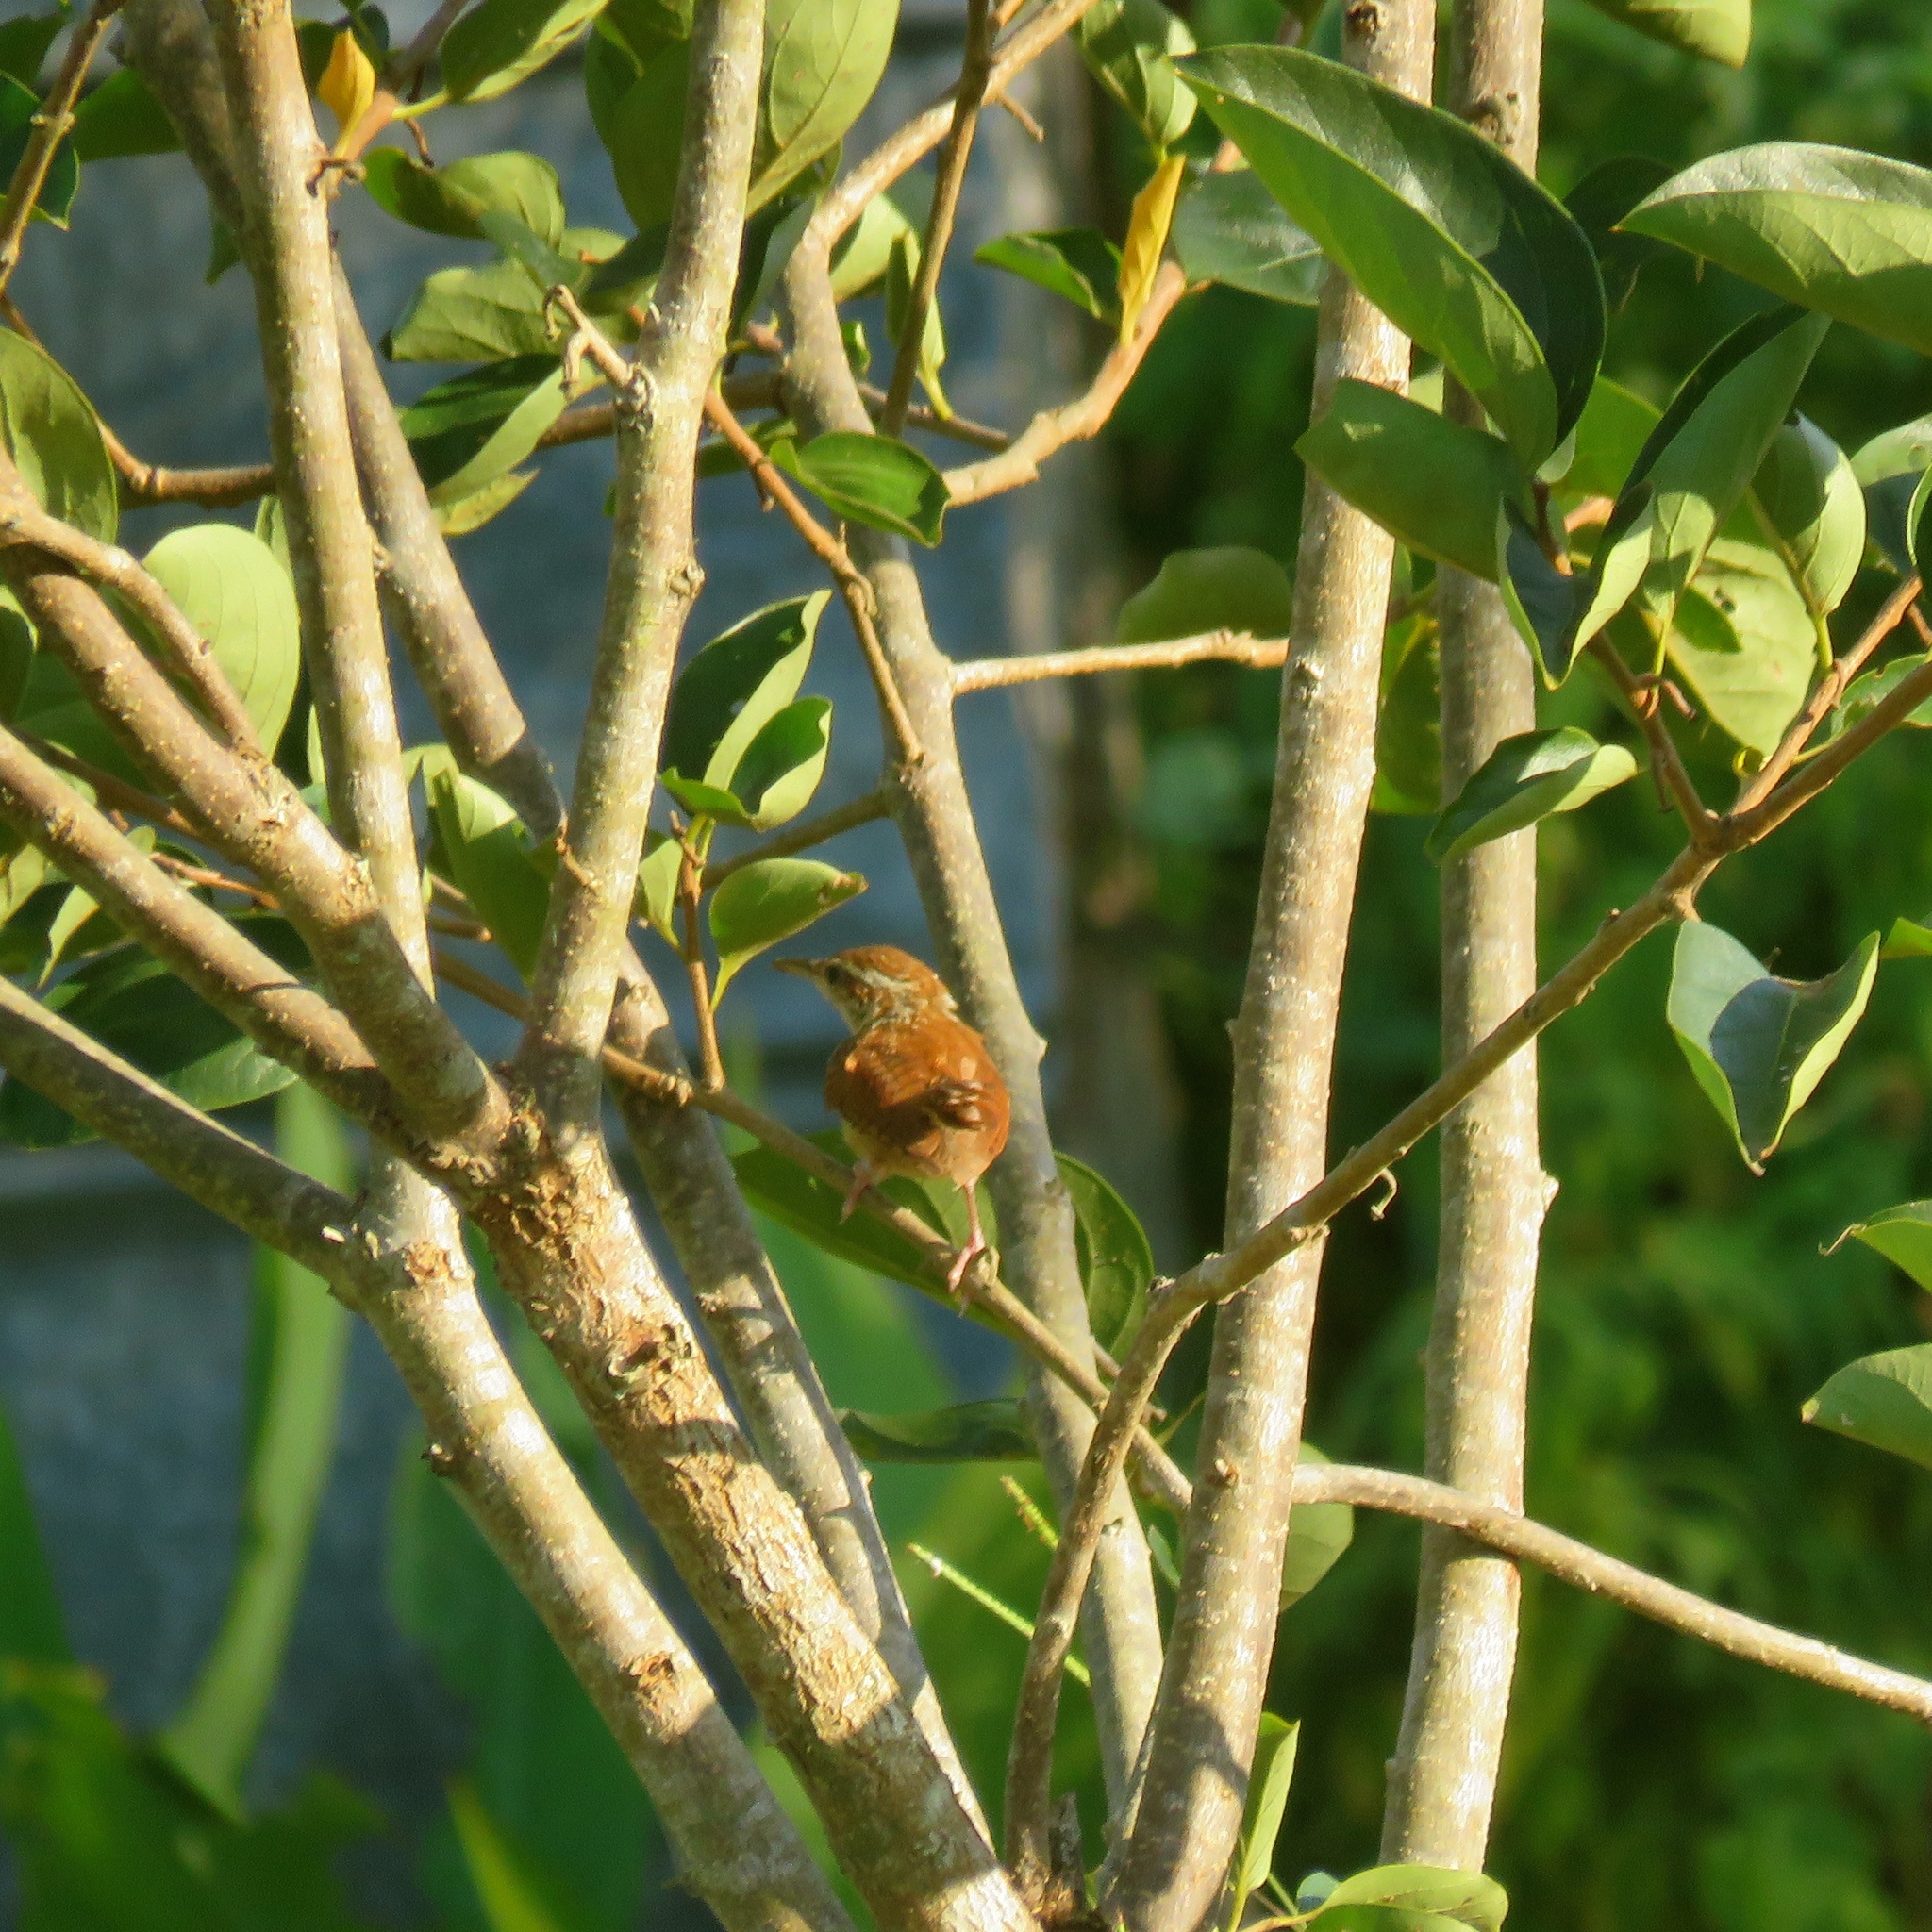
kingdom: Animalia
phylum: Chordata
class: Aves
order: Passeriformes
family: Troglodytidae
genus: Thryothorus
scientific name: Thryothorus ludovicianus
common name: Carolina wren
